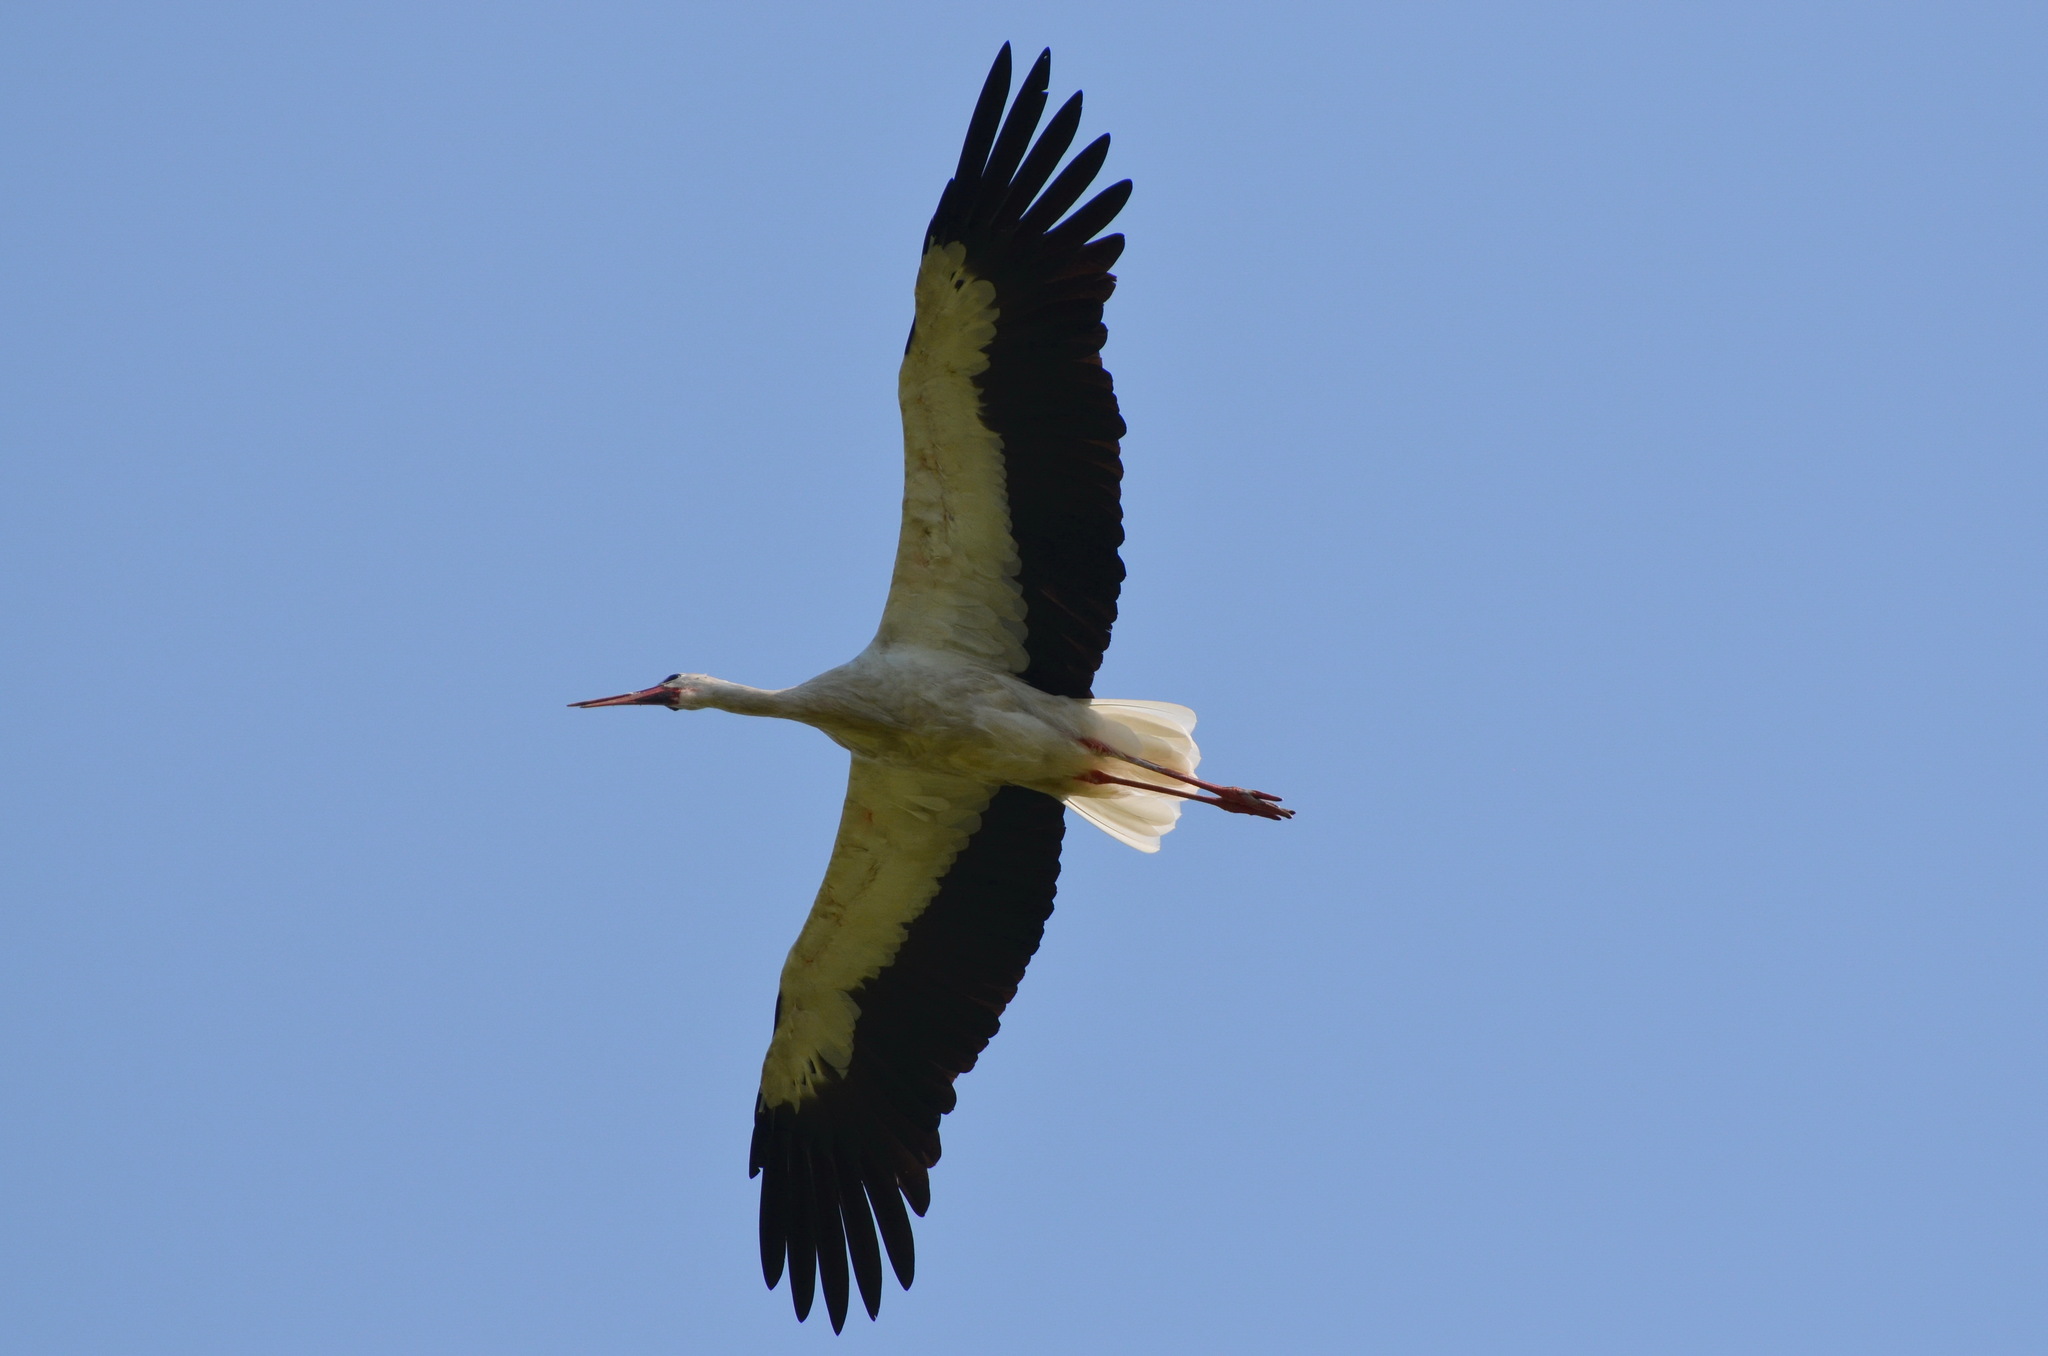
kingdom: Animalia
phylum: Chordata
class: Aves
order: Ciconiiformes
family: Ciconiidae
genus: Ciconia
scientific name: Ciconia ciconia
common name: White stork
